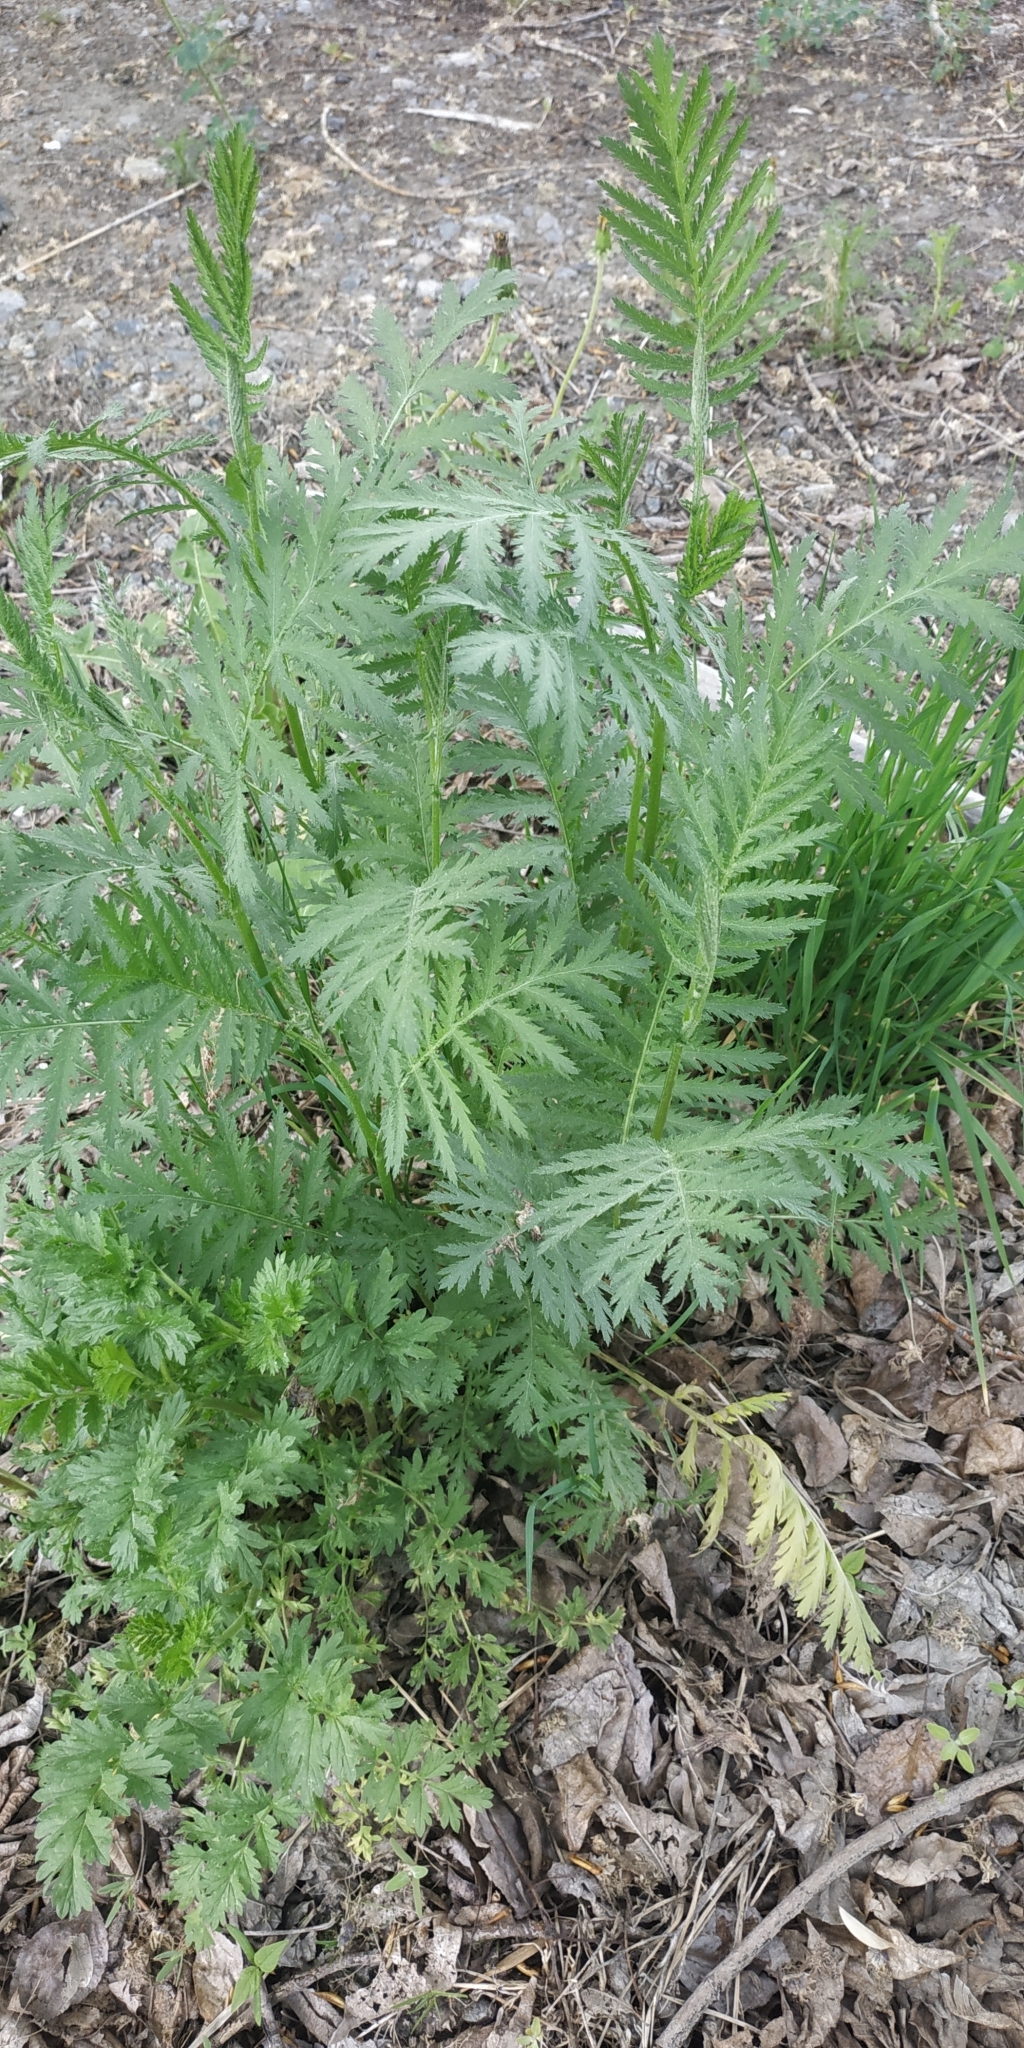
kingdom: Plantae
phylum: Tracheophyta
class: Magnoliopsida
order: Asterales
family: Asteraceae
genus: Tanacetum
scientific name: Tanacetum vulgare
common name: Common tansy
